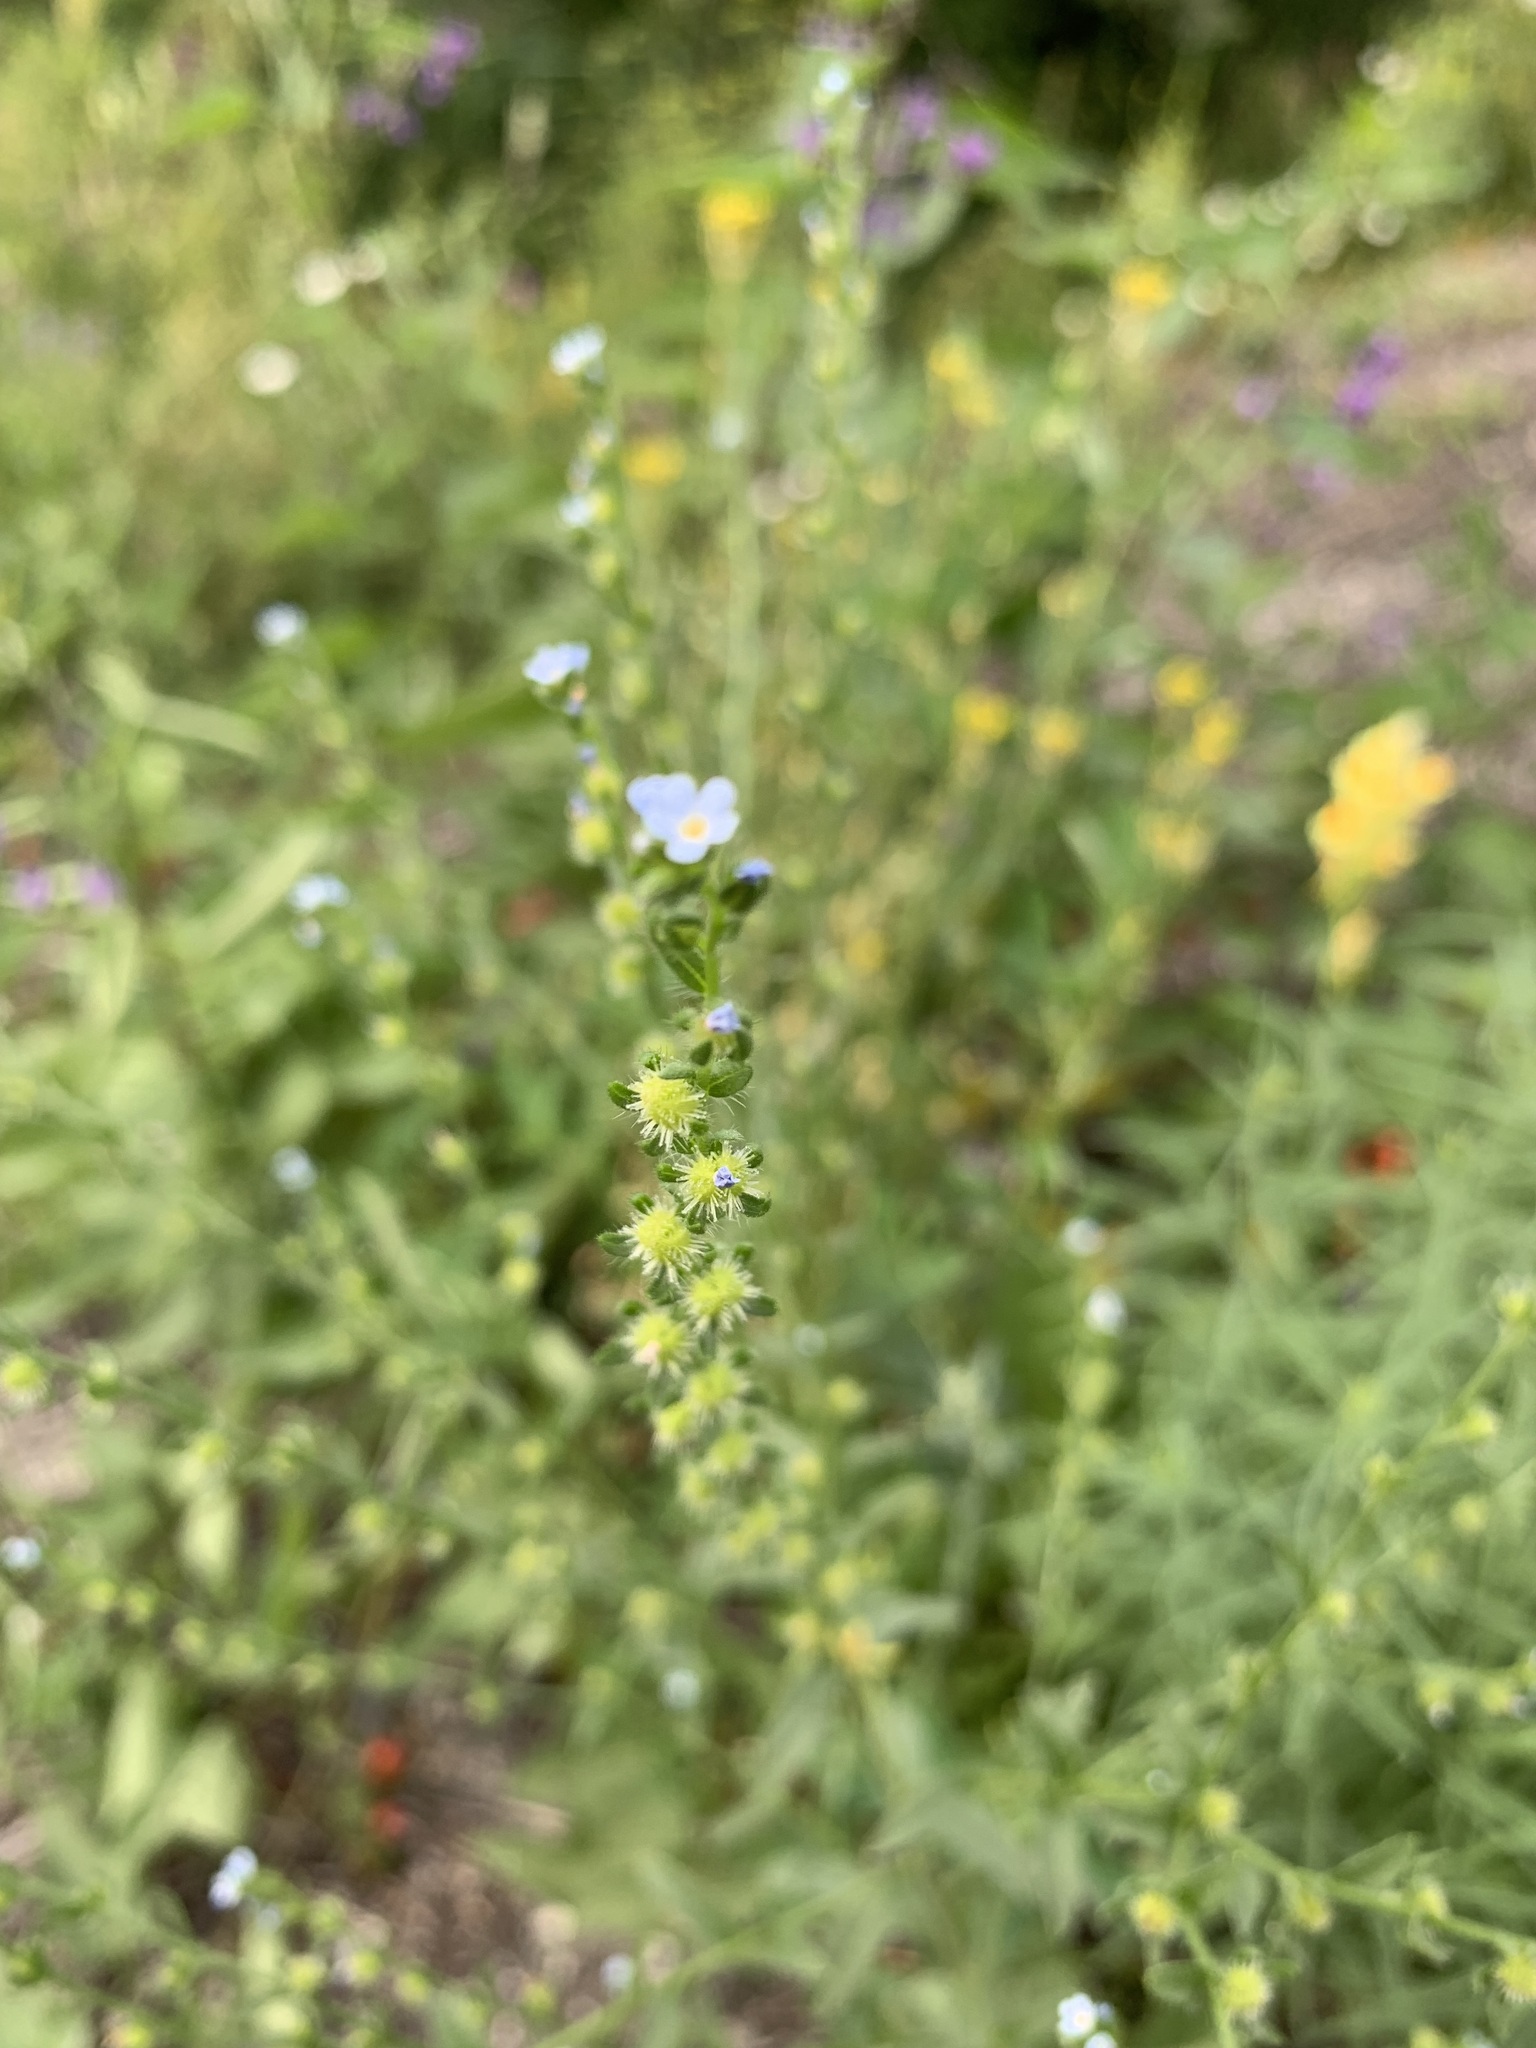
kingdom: Plantae
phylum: Tracheophyta
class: Magnoliopsida
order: Boraginales
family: Boraginaceae
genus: Lappula
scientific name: Lappula squarrosa
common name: European stickseed
